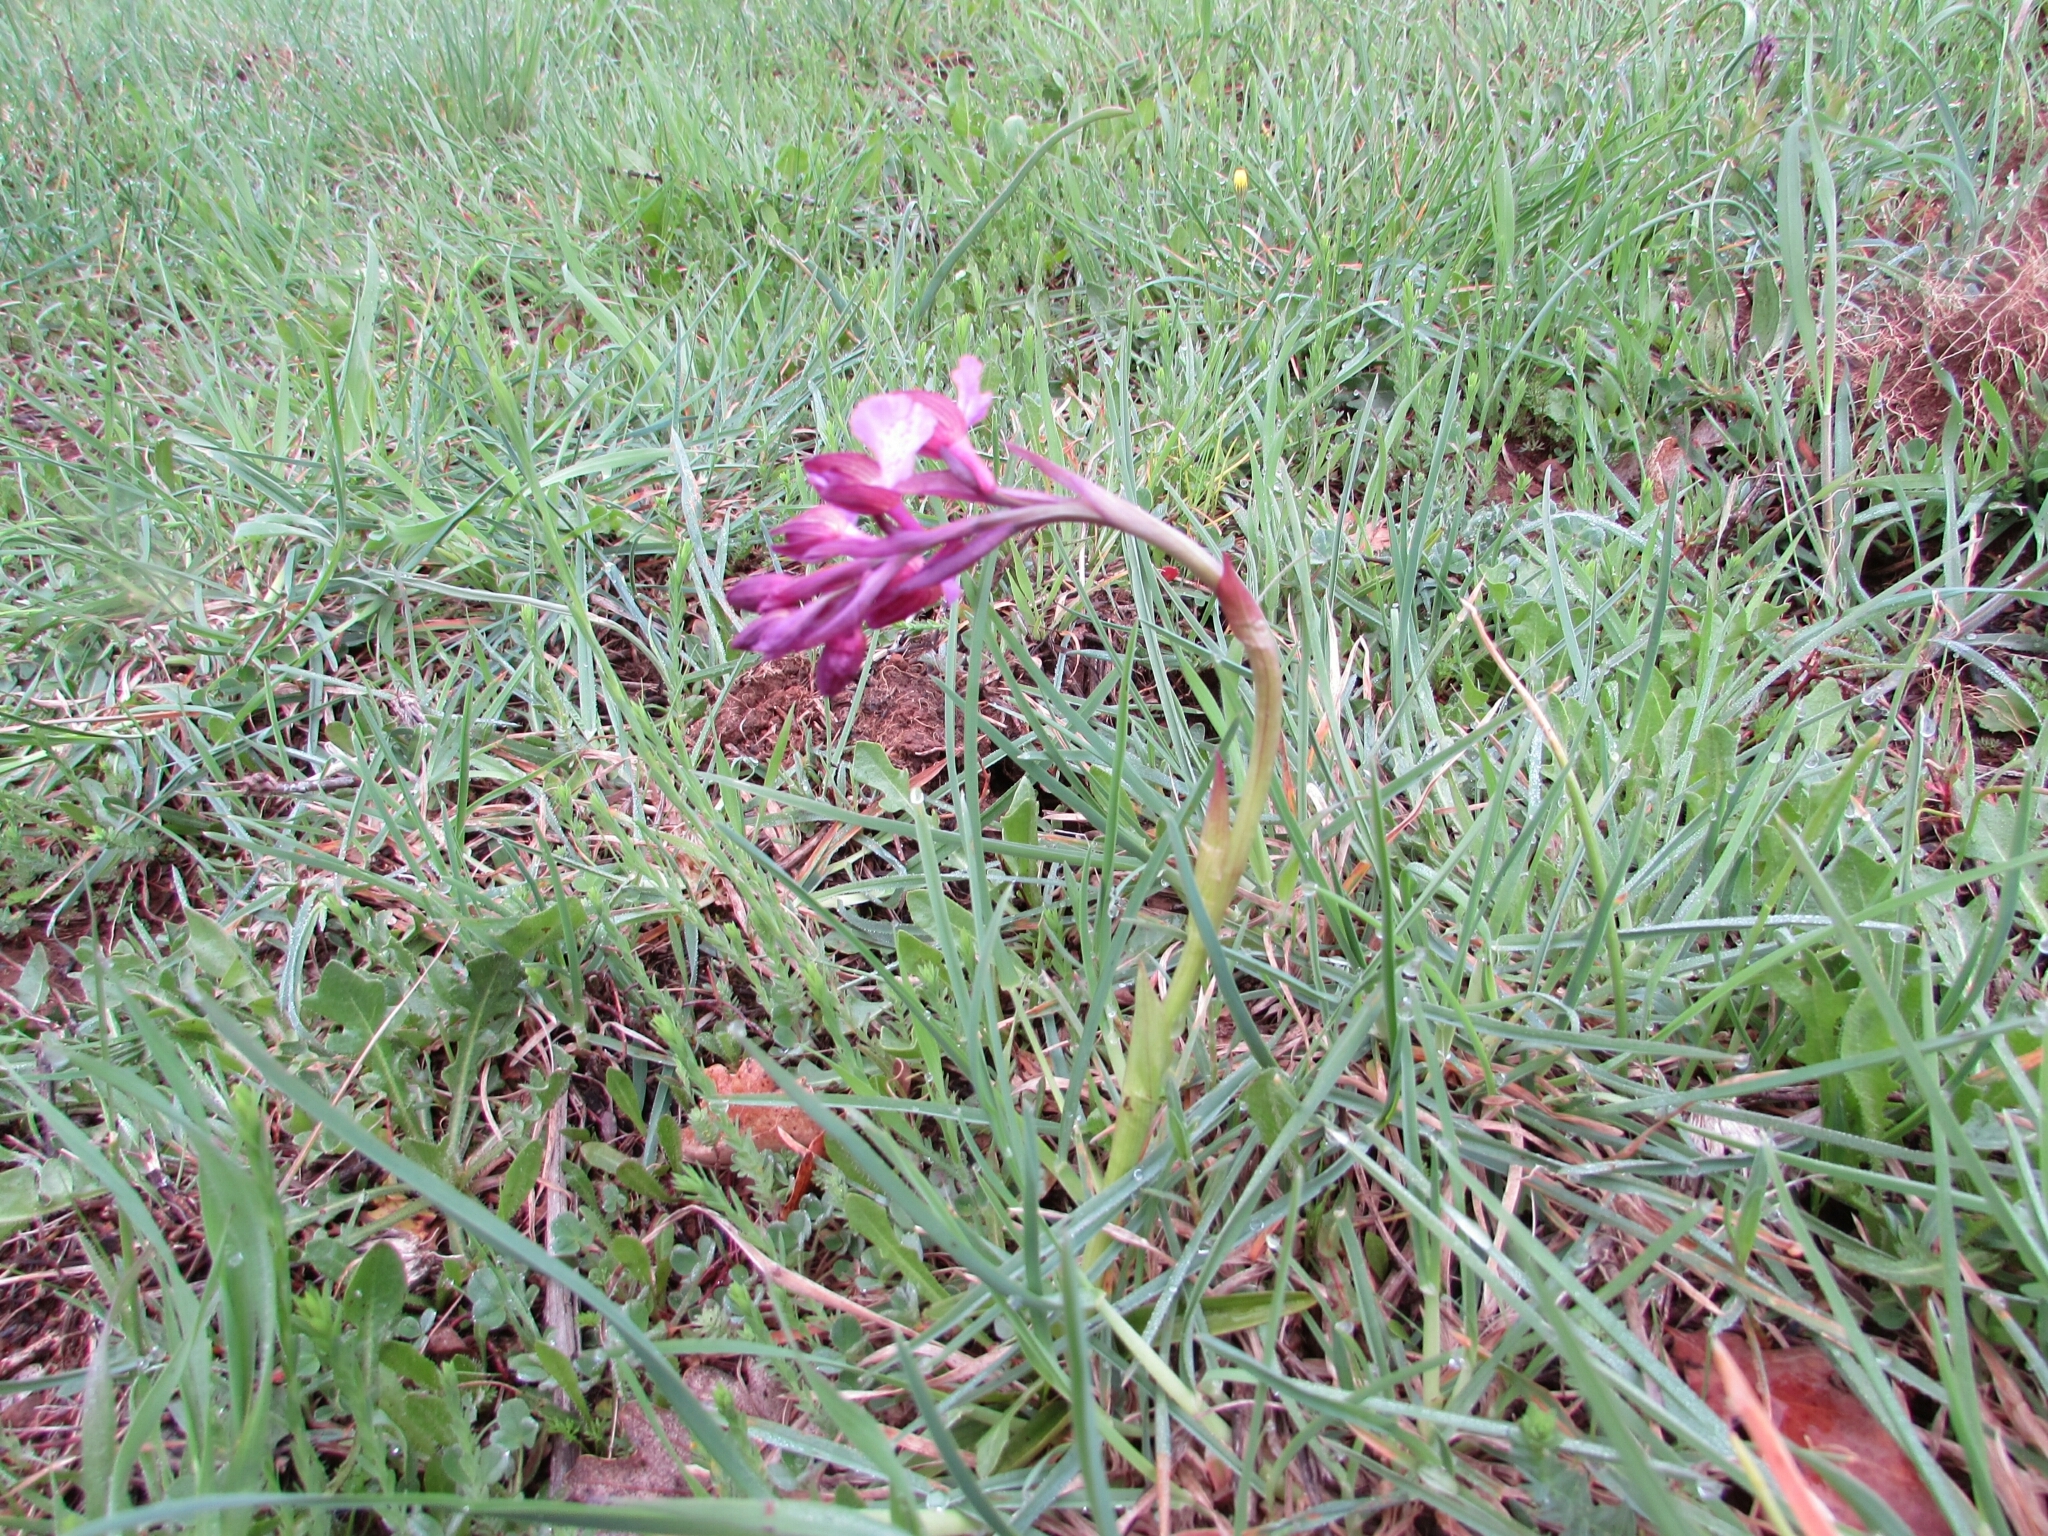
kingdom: Plantae
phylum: Tracheophyta
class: Liliopsida
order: Asparagales
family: Orchidaceae
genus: Anacamptis
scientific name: Anacamptis gennarii
